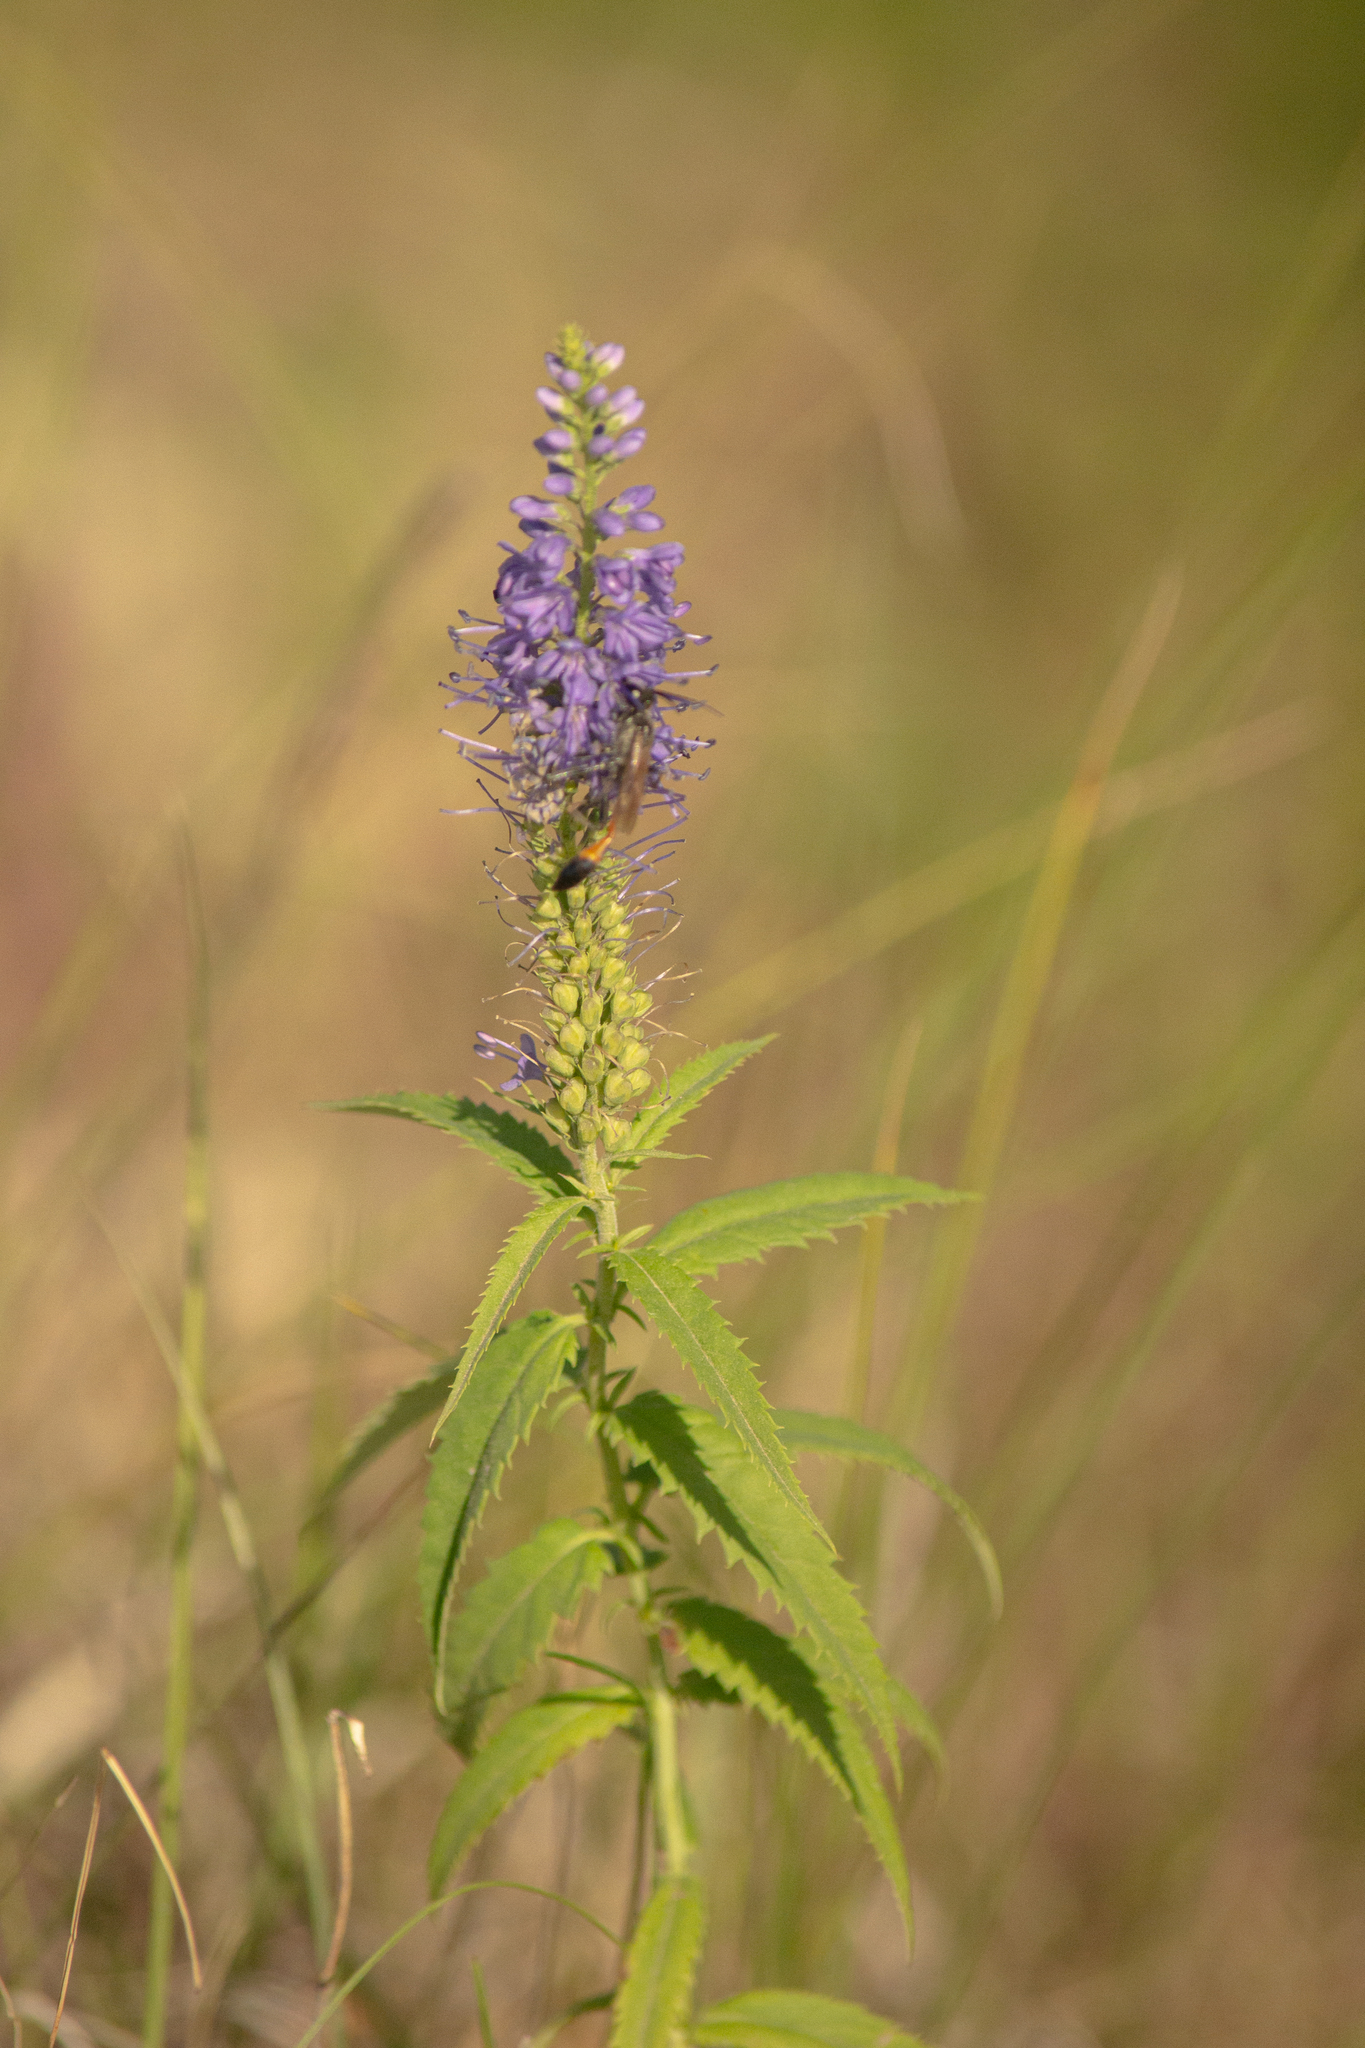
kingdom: Plantae
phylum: Tracheophyta
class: Magnoliopsida
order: Lamiales
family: Plantaginaceae
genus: Veronica
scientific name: Veronica longifolia
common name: Garden speedwell
